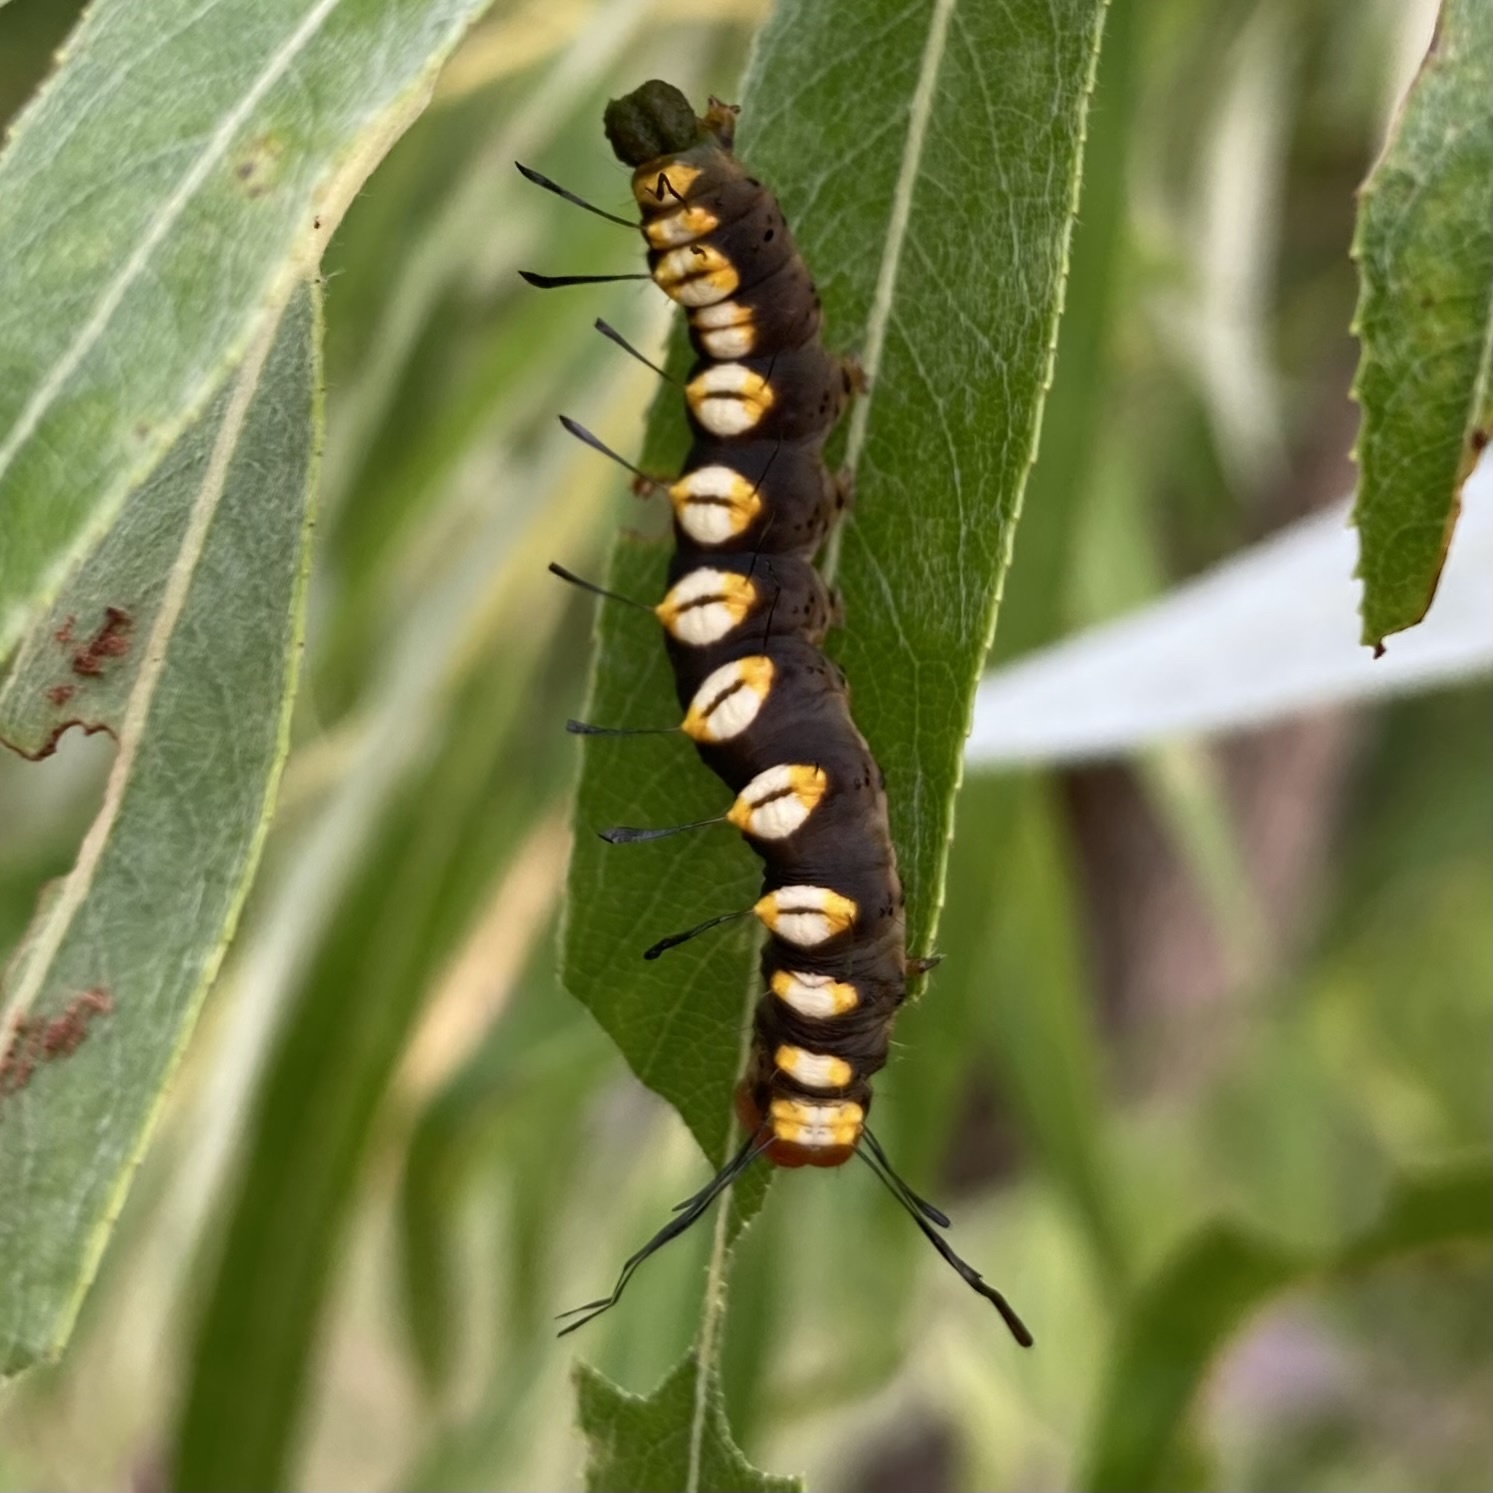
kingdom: Animalia
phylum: Arthropoda
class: Insecta
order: Lepidoptera
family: Noctuidae
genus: Acronicta
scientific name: Acronicta funeralis
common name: Funerary dagger
